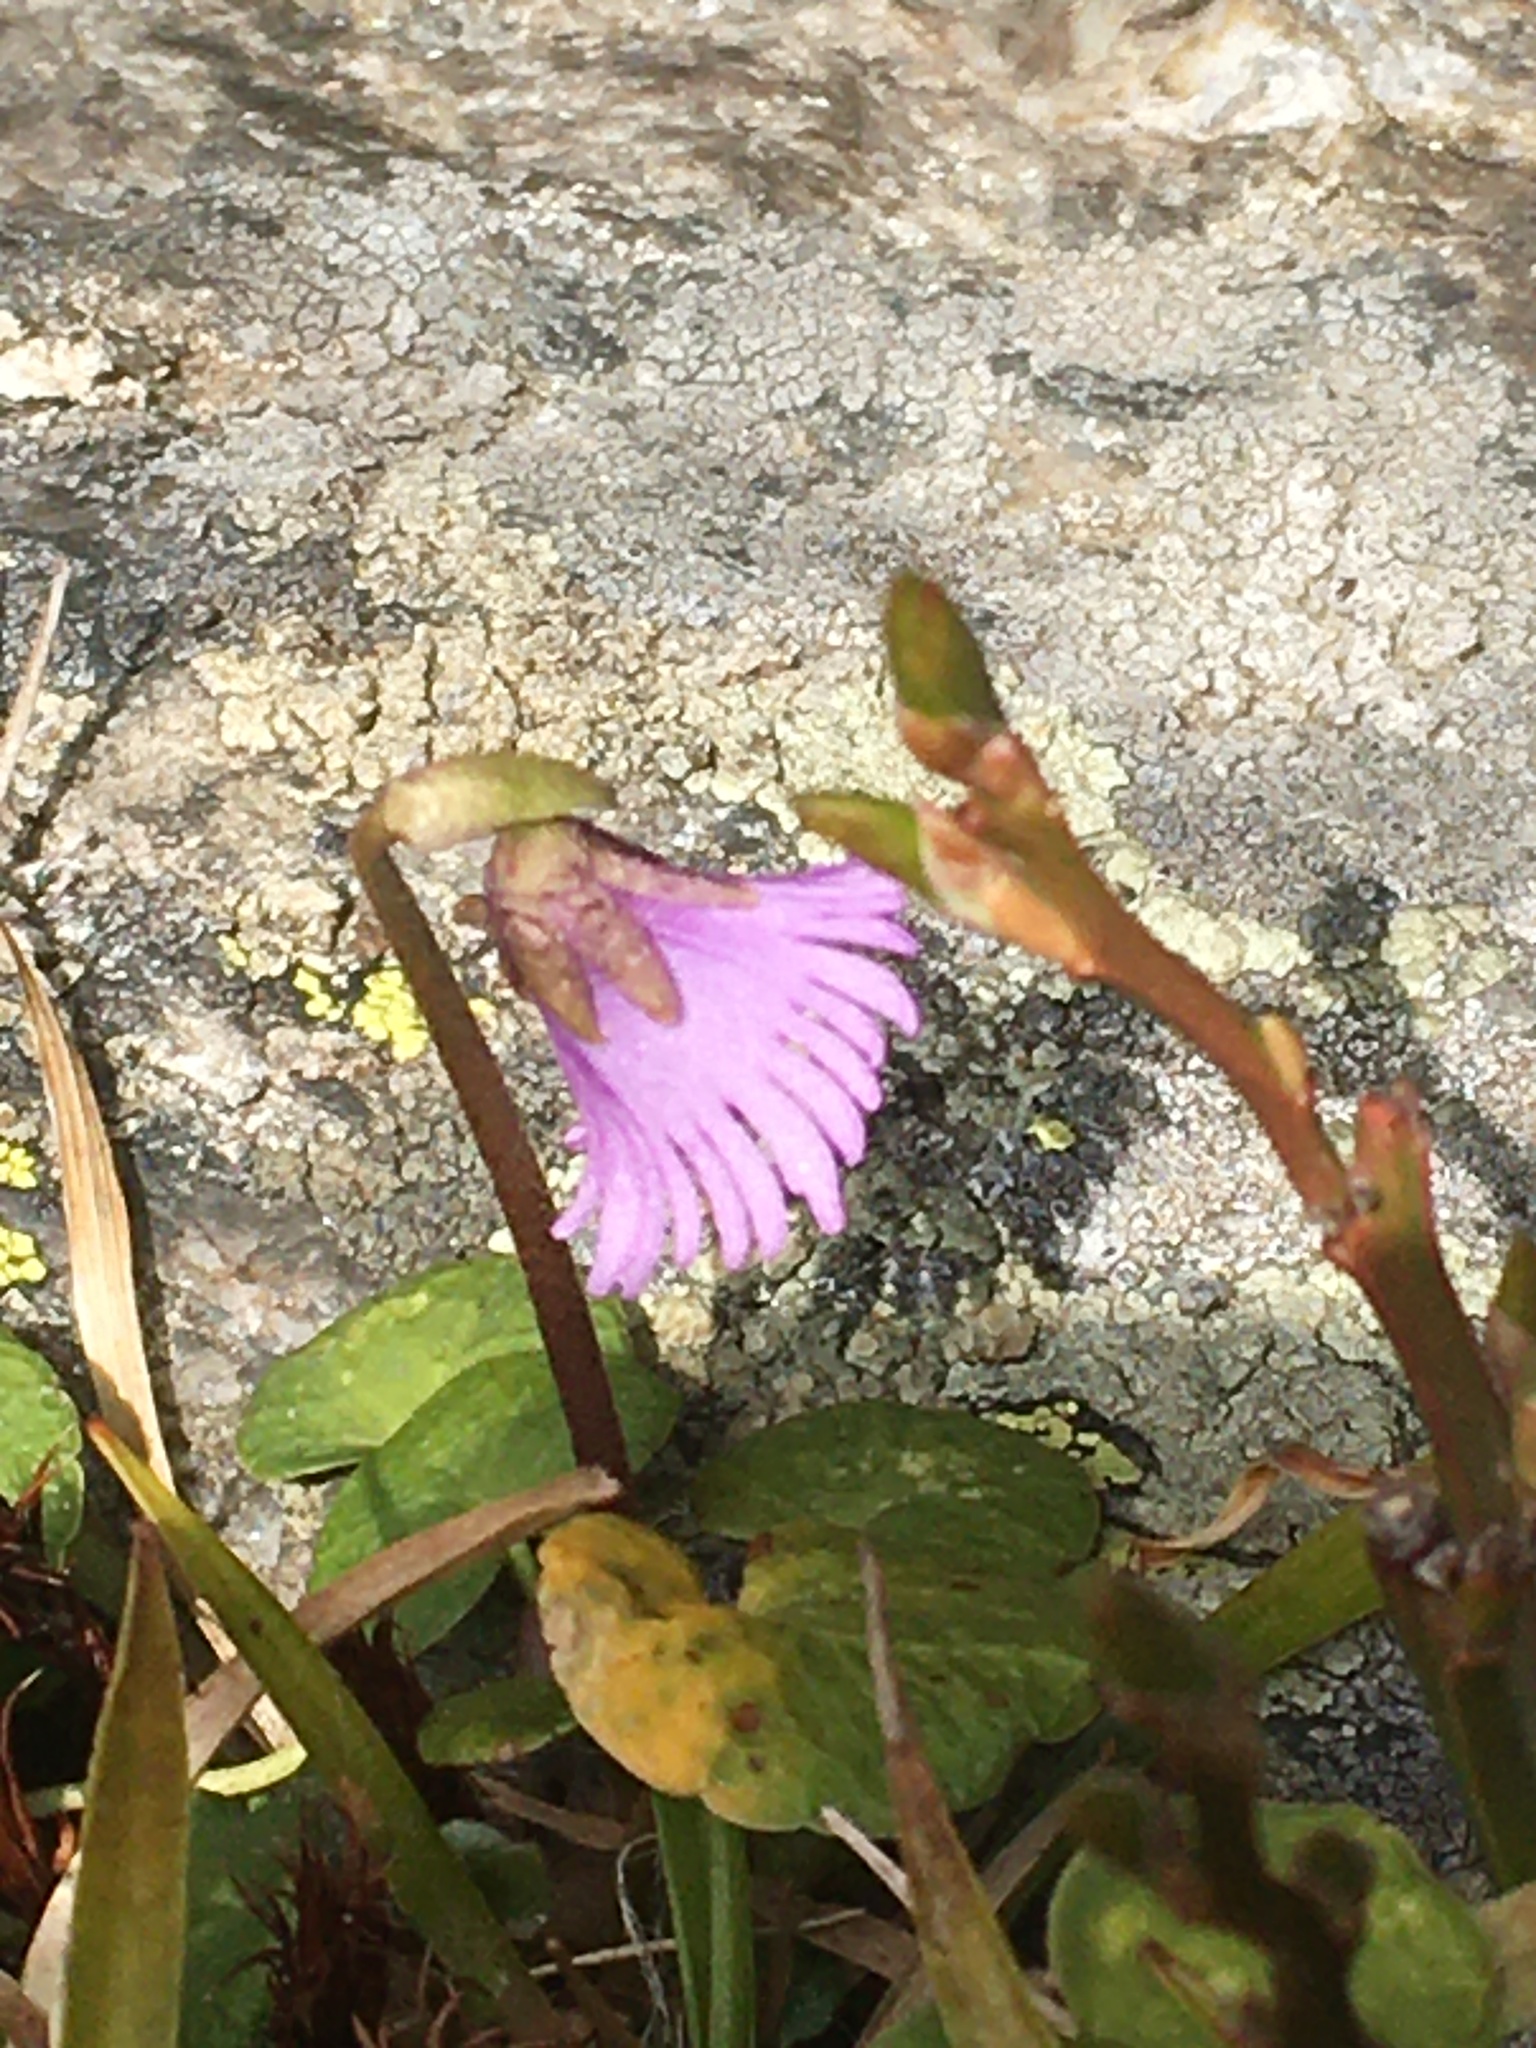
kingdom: Plantae
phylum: Tracheophyta
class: Magnoliopsida
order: Ericales
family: Primulaceae
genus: Soldanella
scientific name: Soldanella pusilla
